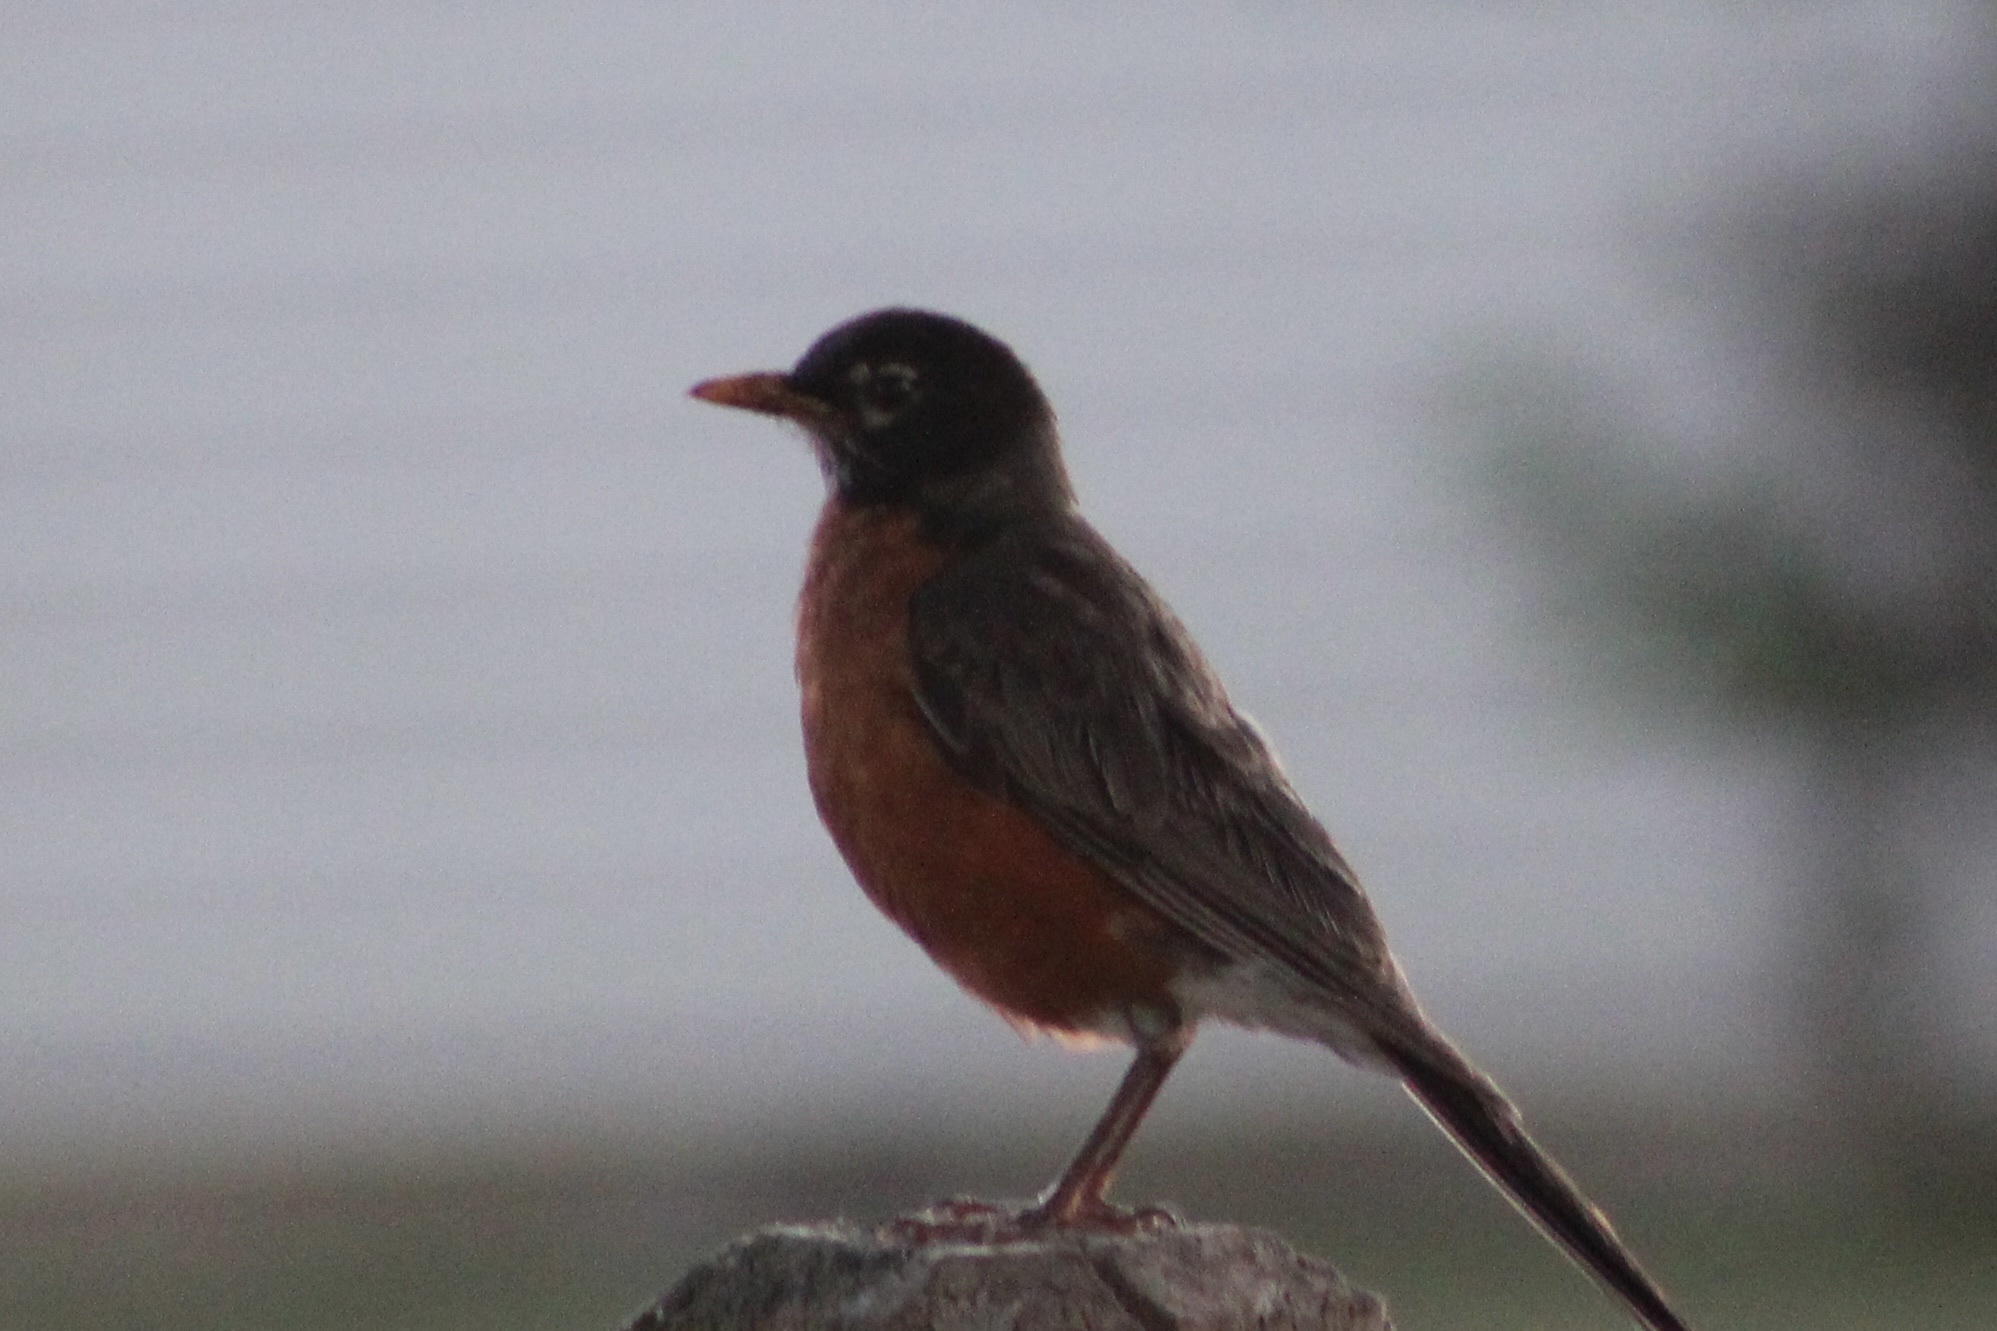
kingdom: Animalia
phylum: Chordata
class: Aves
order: Passeriformes
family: Turdidae
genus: Turdus
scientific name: Turdus migratorius
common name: American robin
